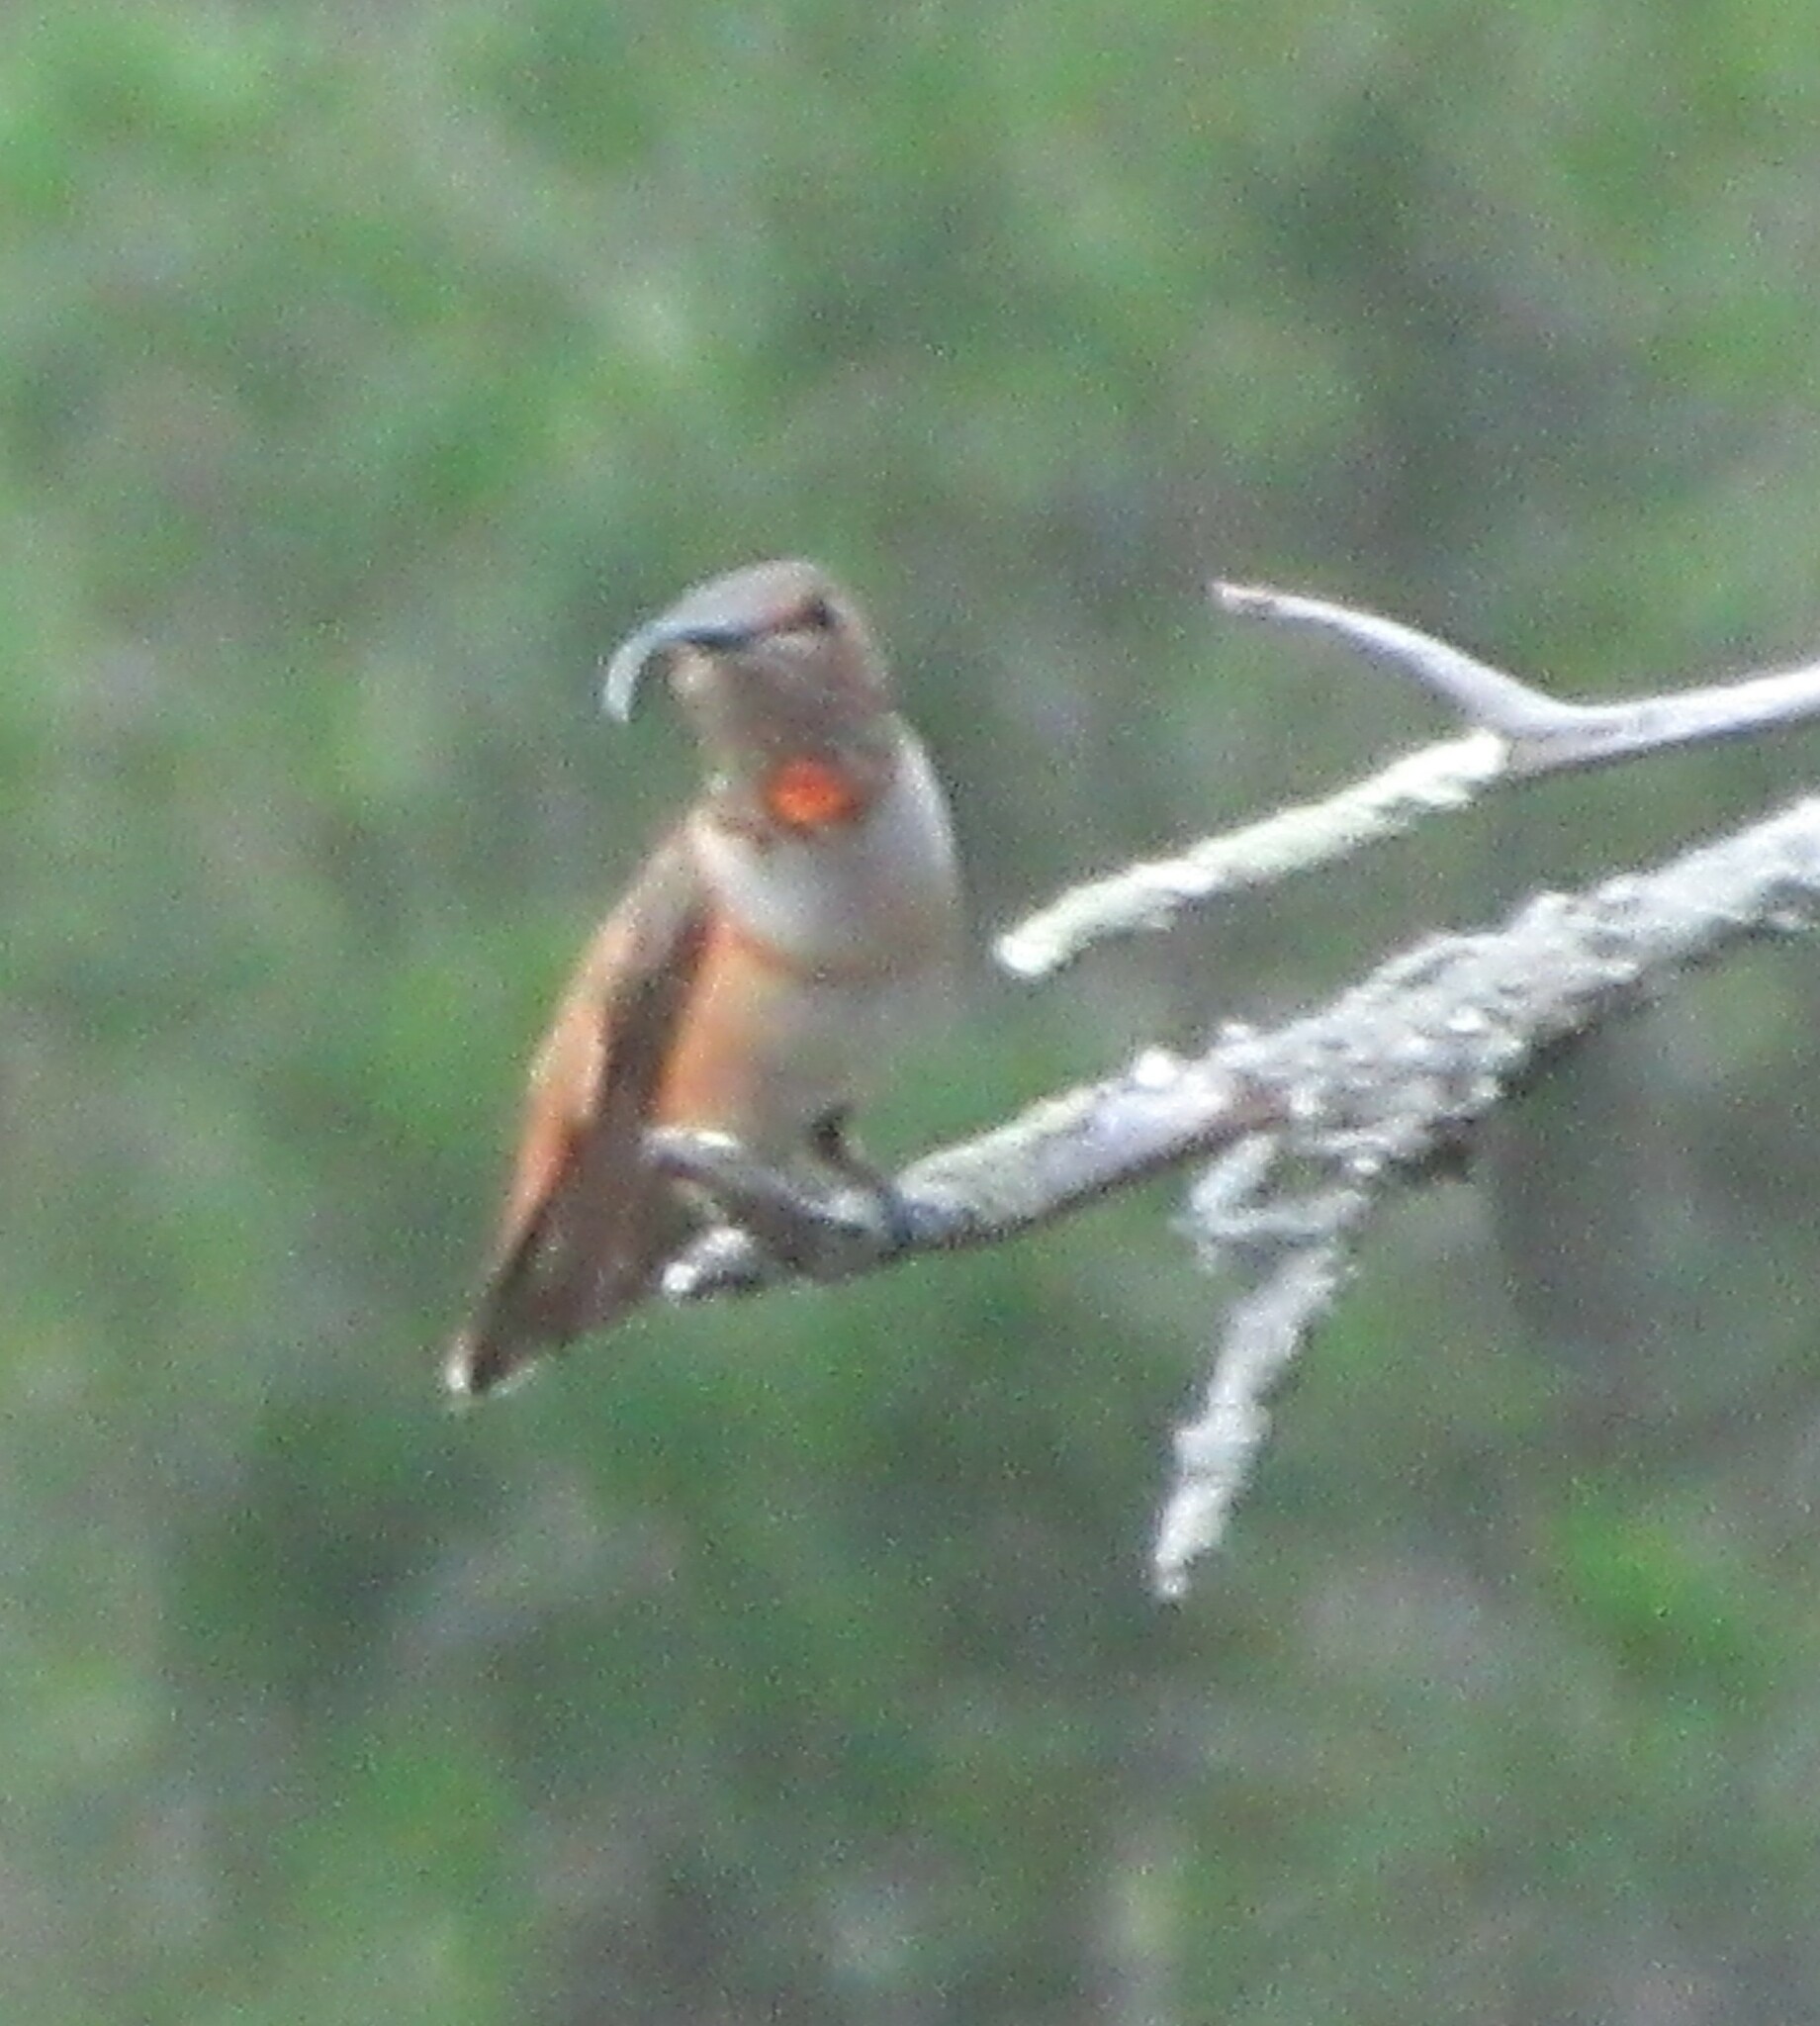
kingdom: Animalia
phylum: Chordata
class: Aves
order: Apodiformes
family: Trochilidae
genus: Selasphorus
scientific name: Selasphorus rufus
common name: Rufous hummingbird
